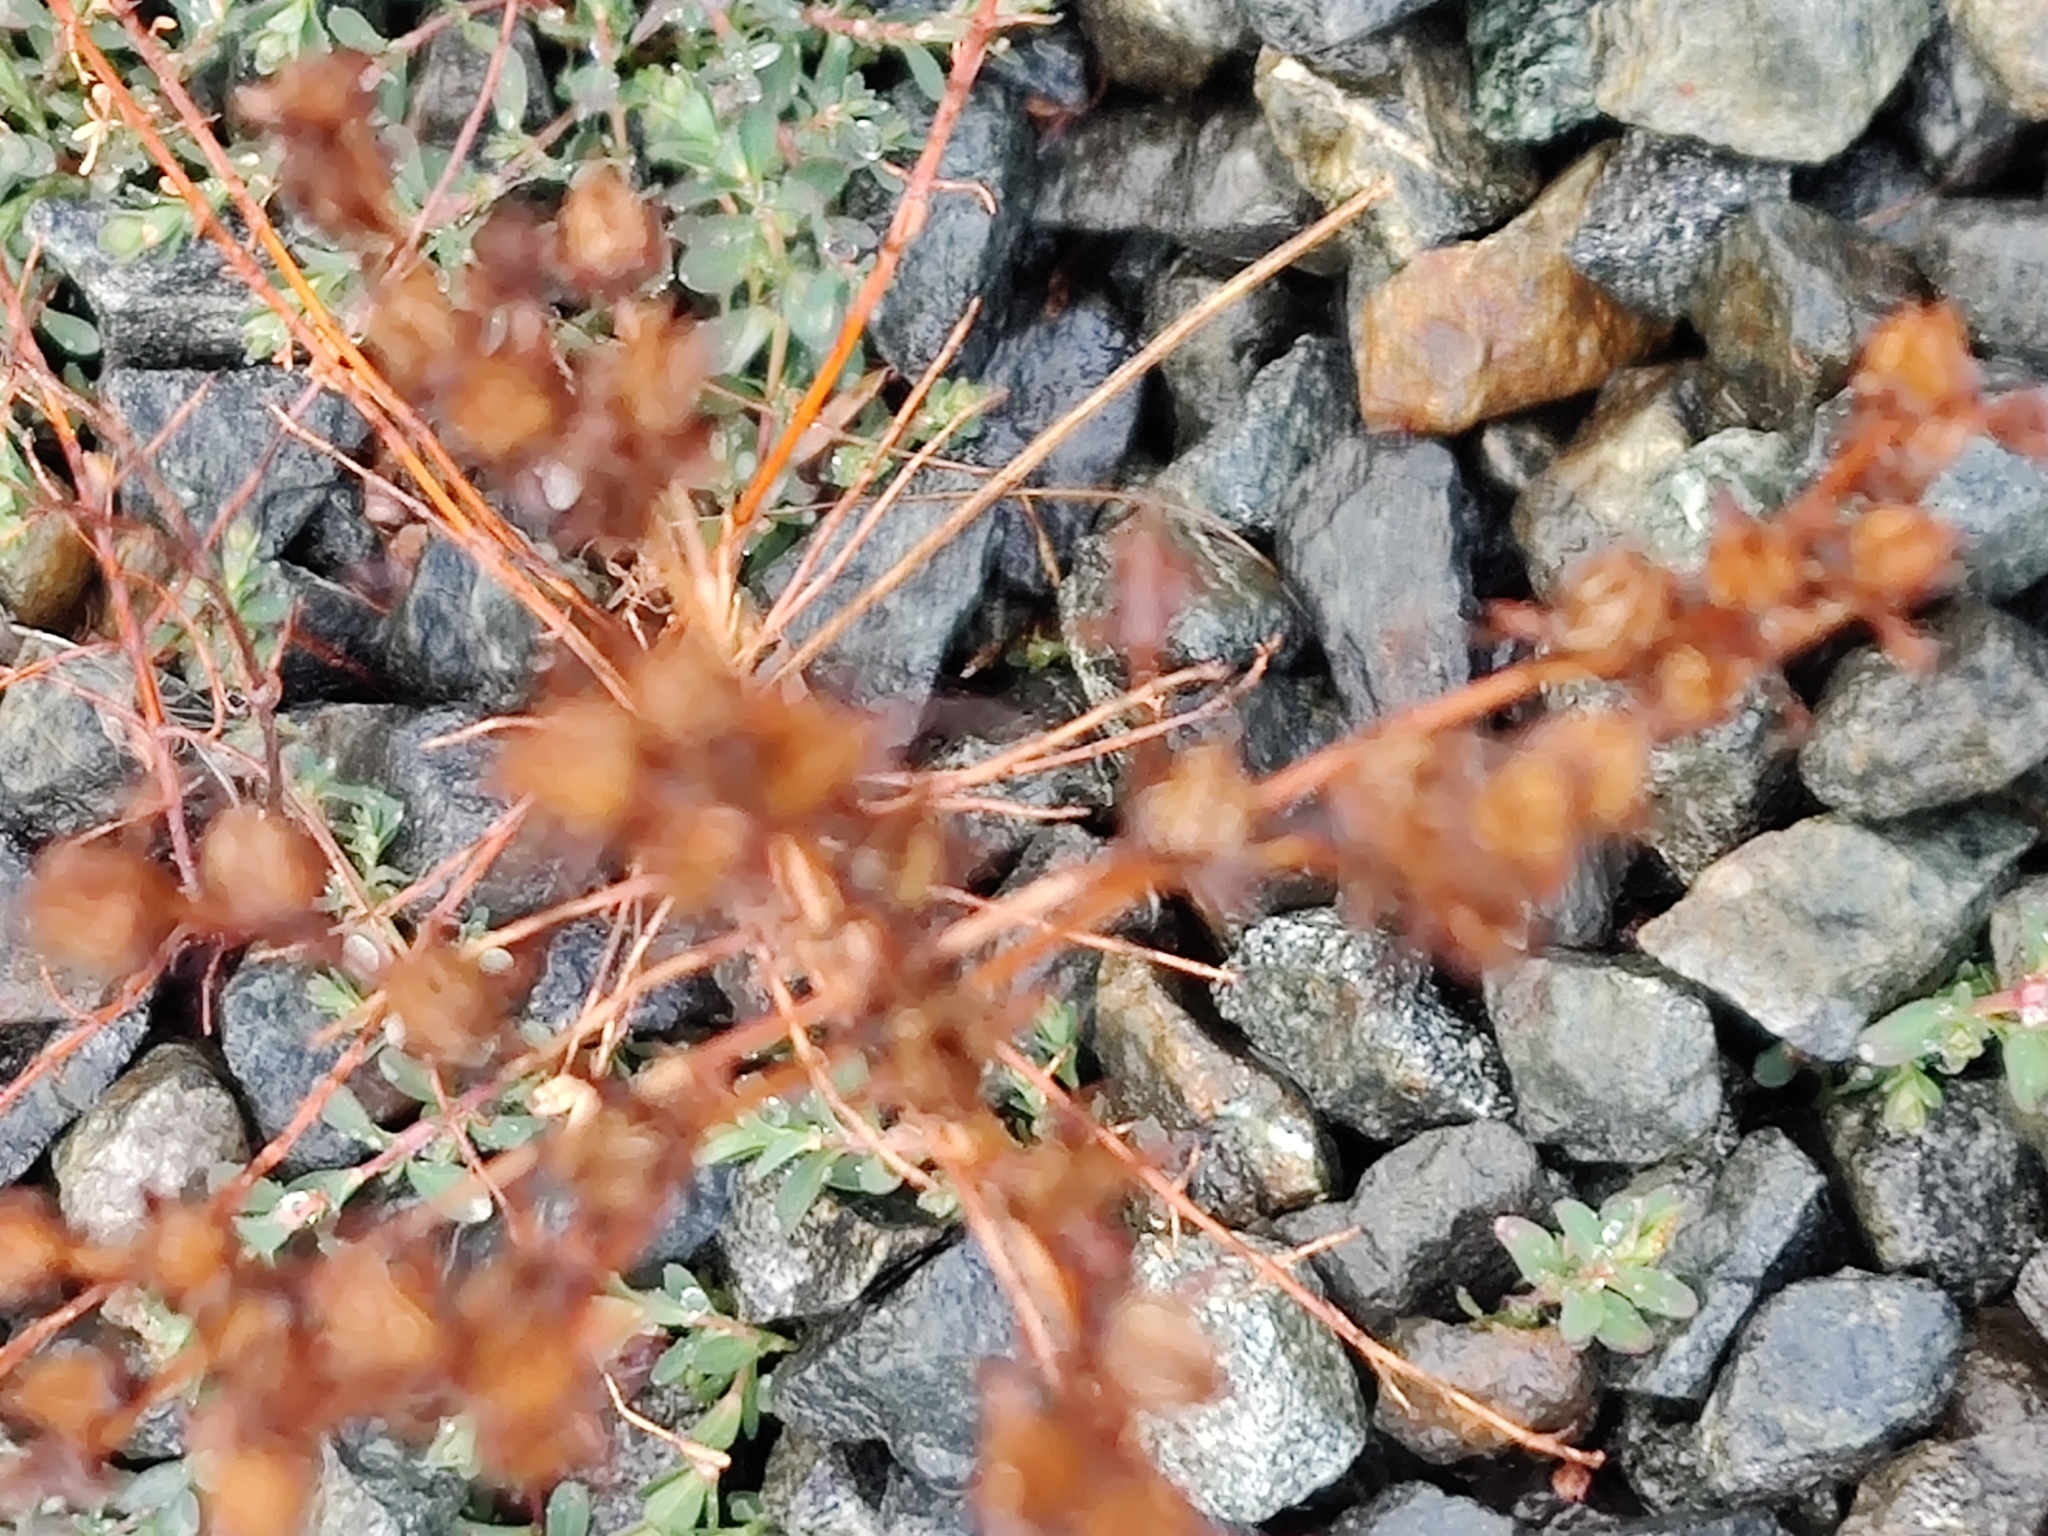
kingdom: Plantae
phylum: Tracheophyta
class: Magnoliopsida
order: Caryophyllales
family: Polygonaceae
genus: Polygonum
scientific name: Polygonum aviculare
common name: Prostrate knotweed
